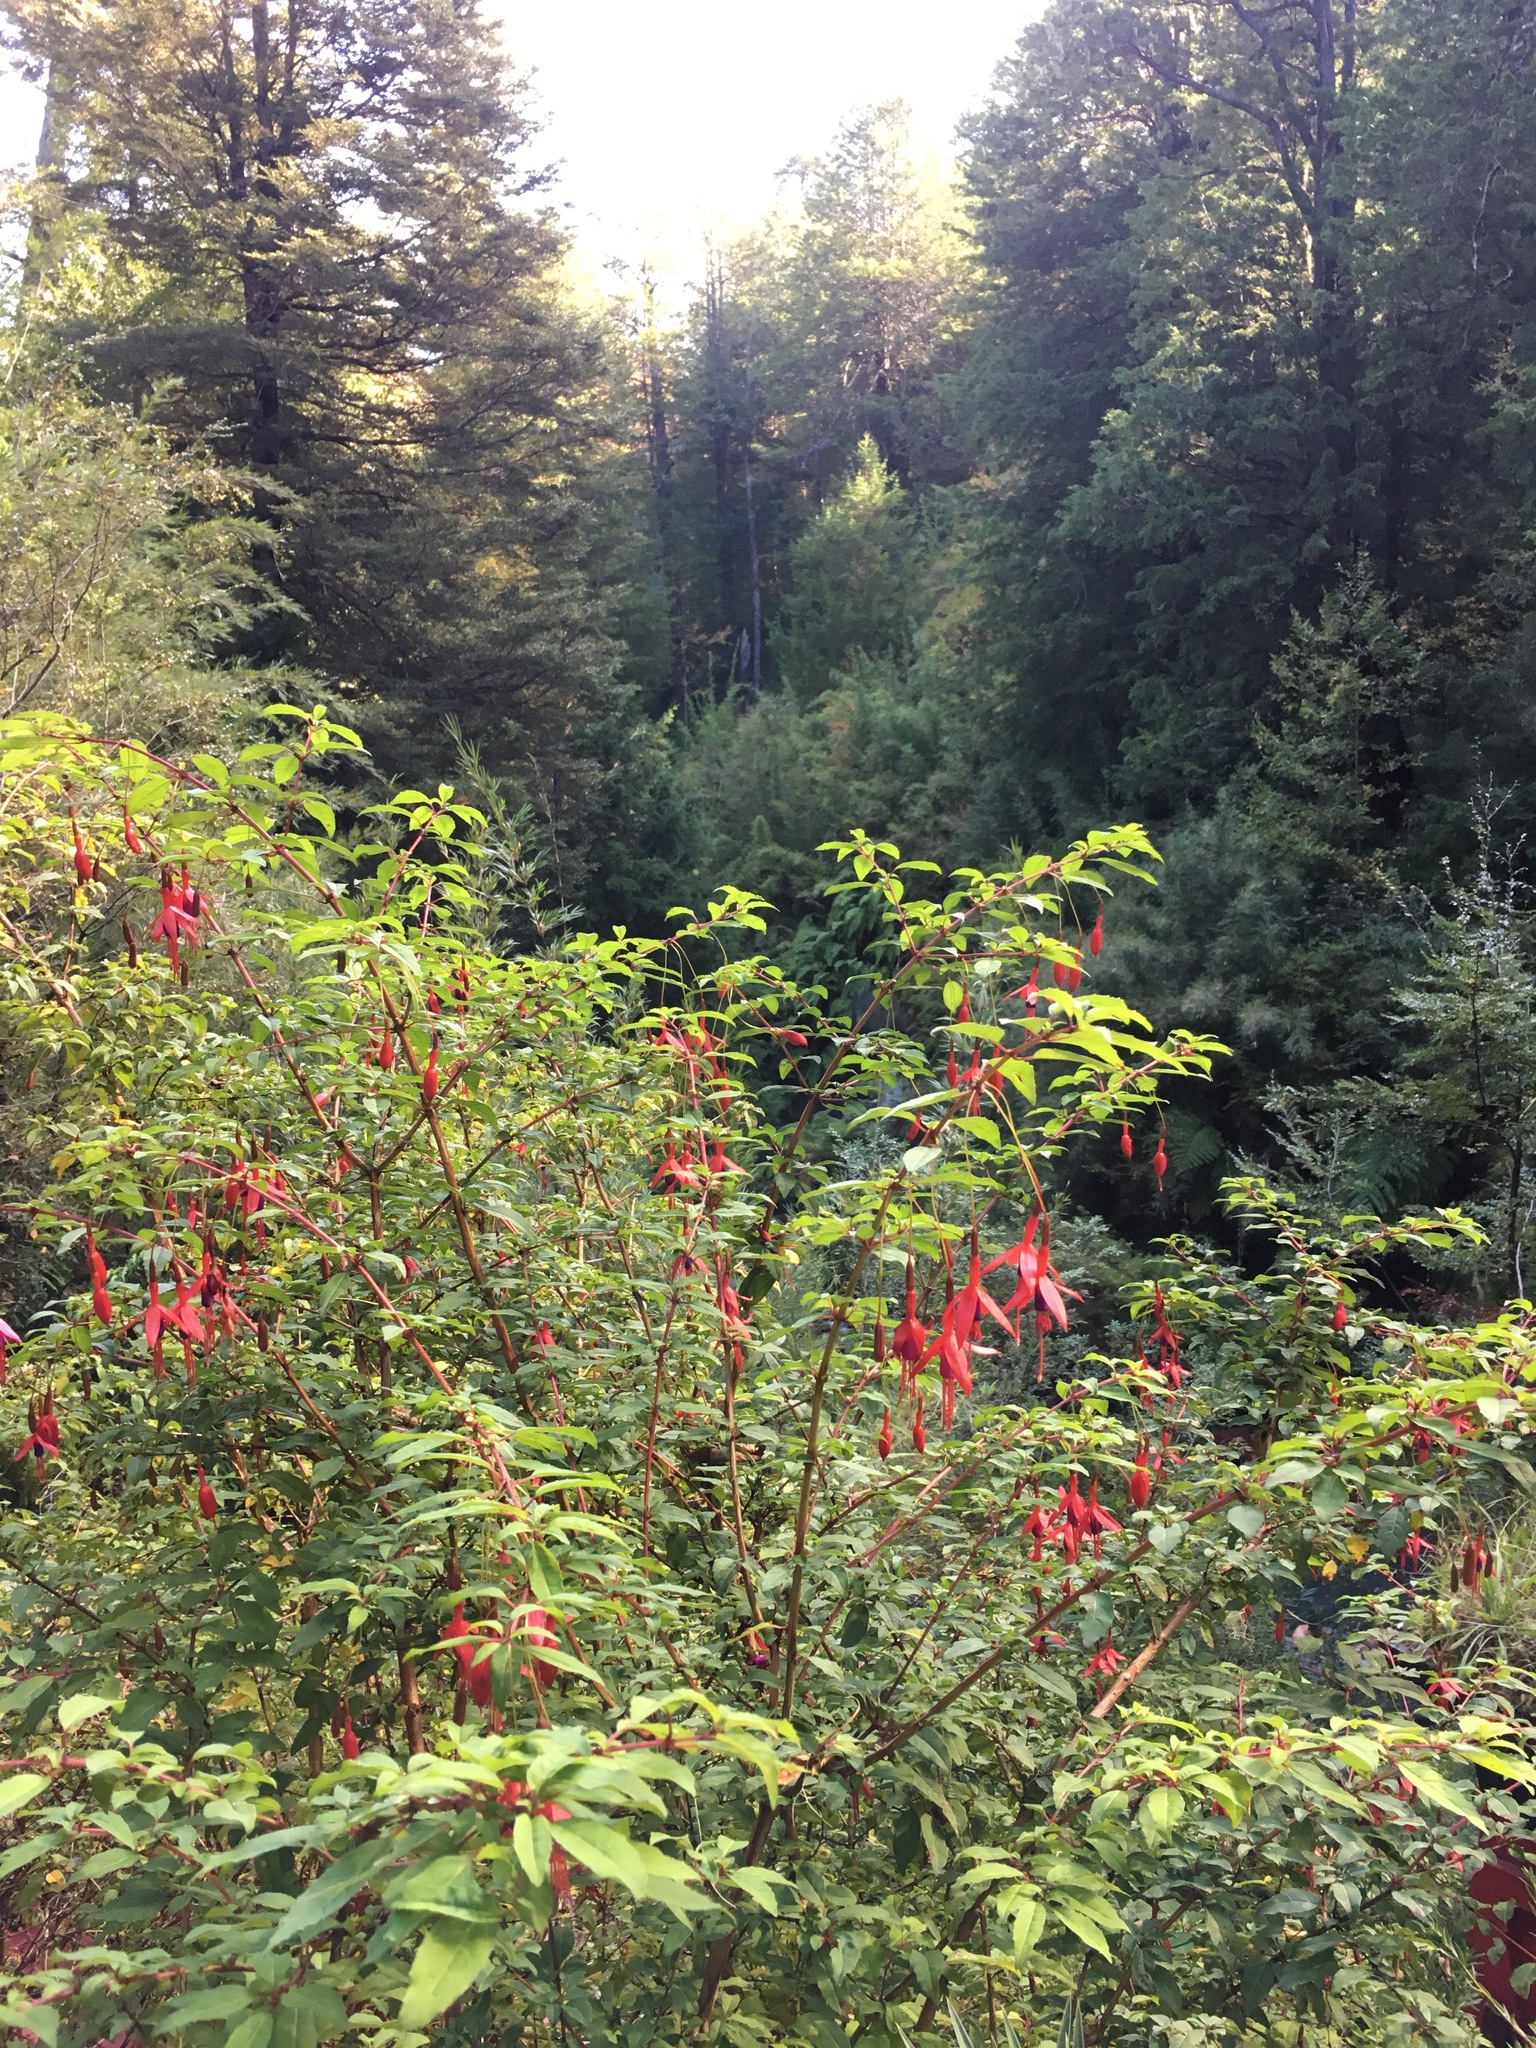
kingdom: Plantae
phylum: Tracheophyta
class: Magnoliopsida
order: Myrtales
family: Onagraceae
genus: Fuchsia
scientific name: Fuchsia magellanica
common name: Hardy fuchsia
